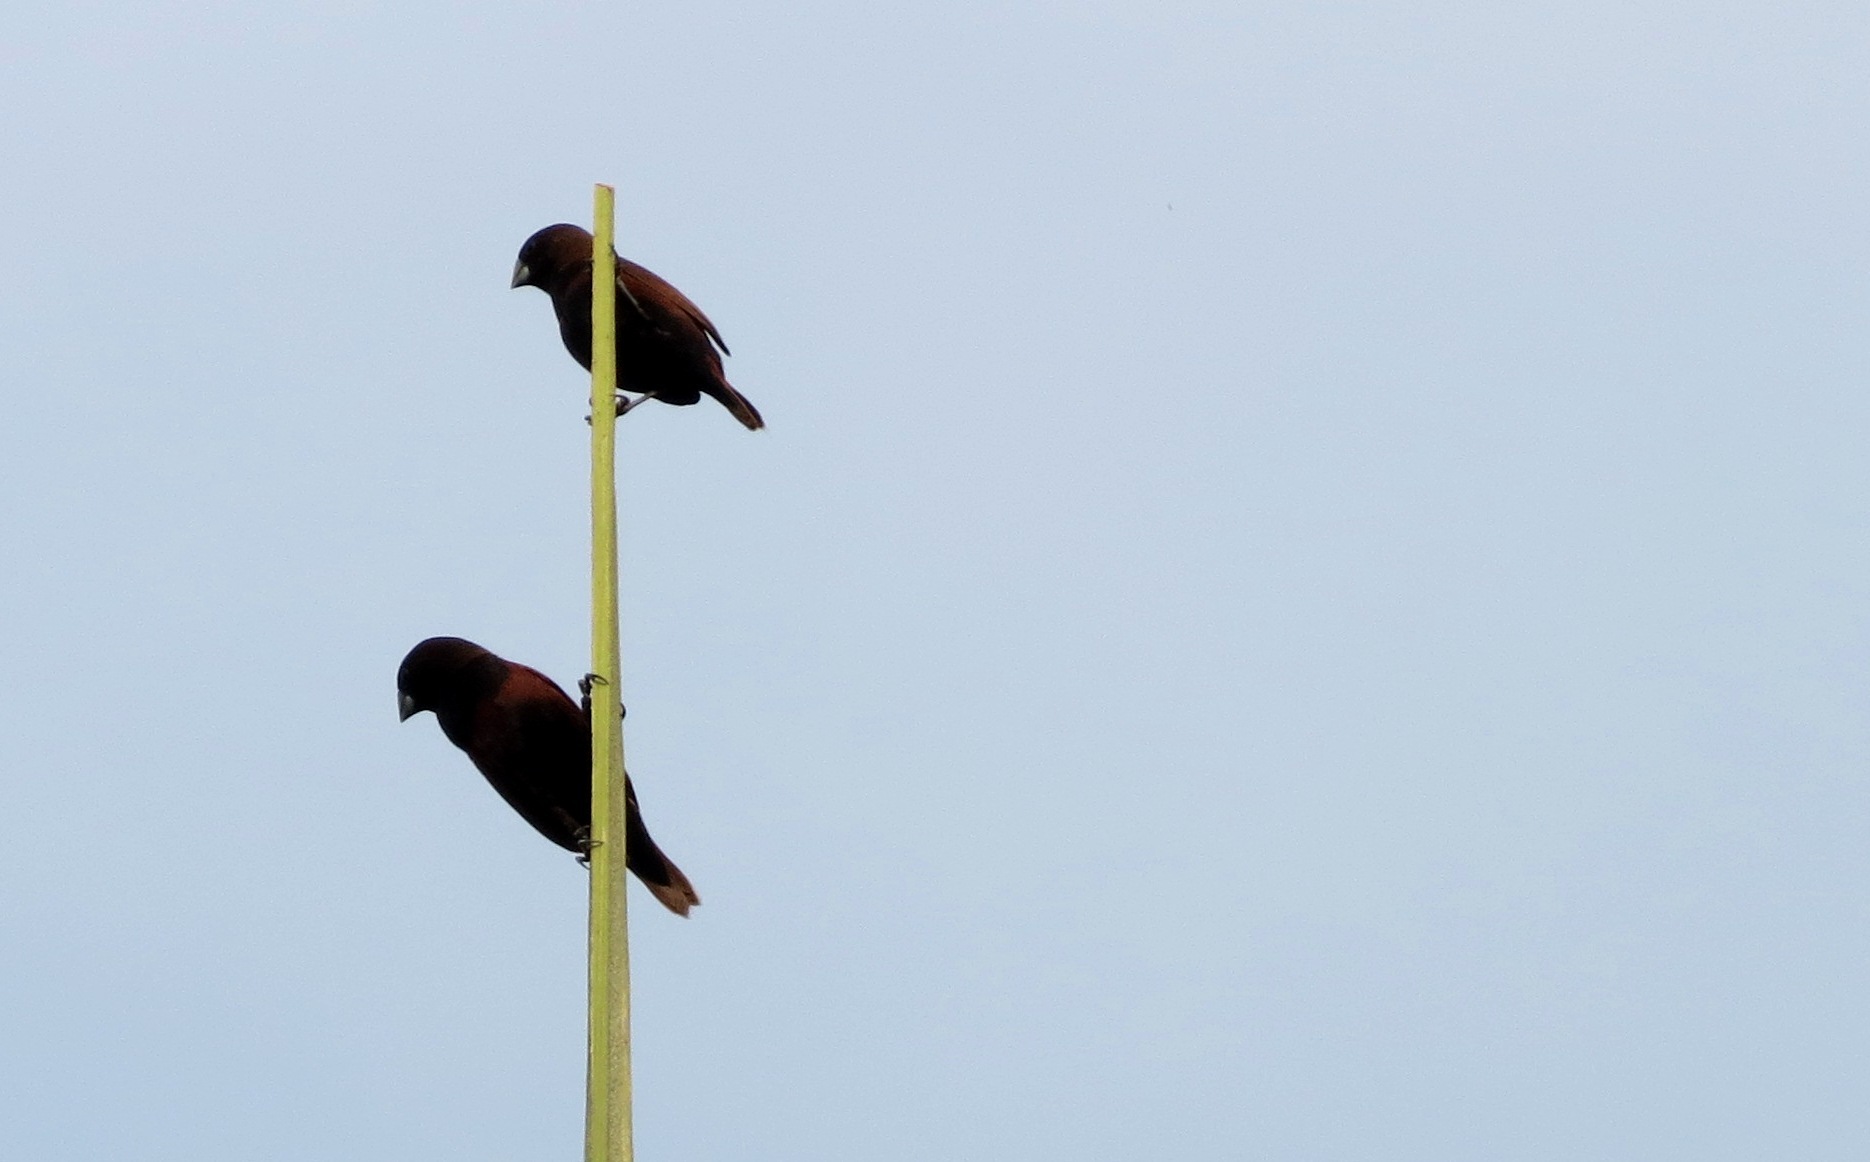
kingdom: Animalia
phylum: Chordata
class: Aves
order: Passeriformes
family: Estrildidae
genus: Lonchura
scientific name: Lonchura atricapilla
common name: Chestnut munia
